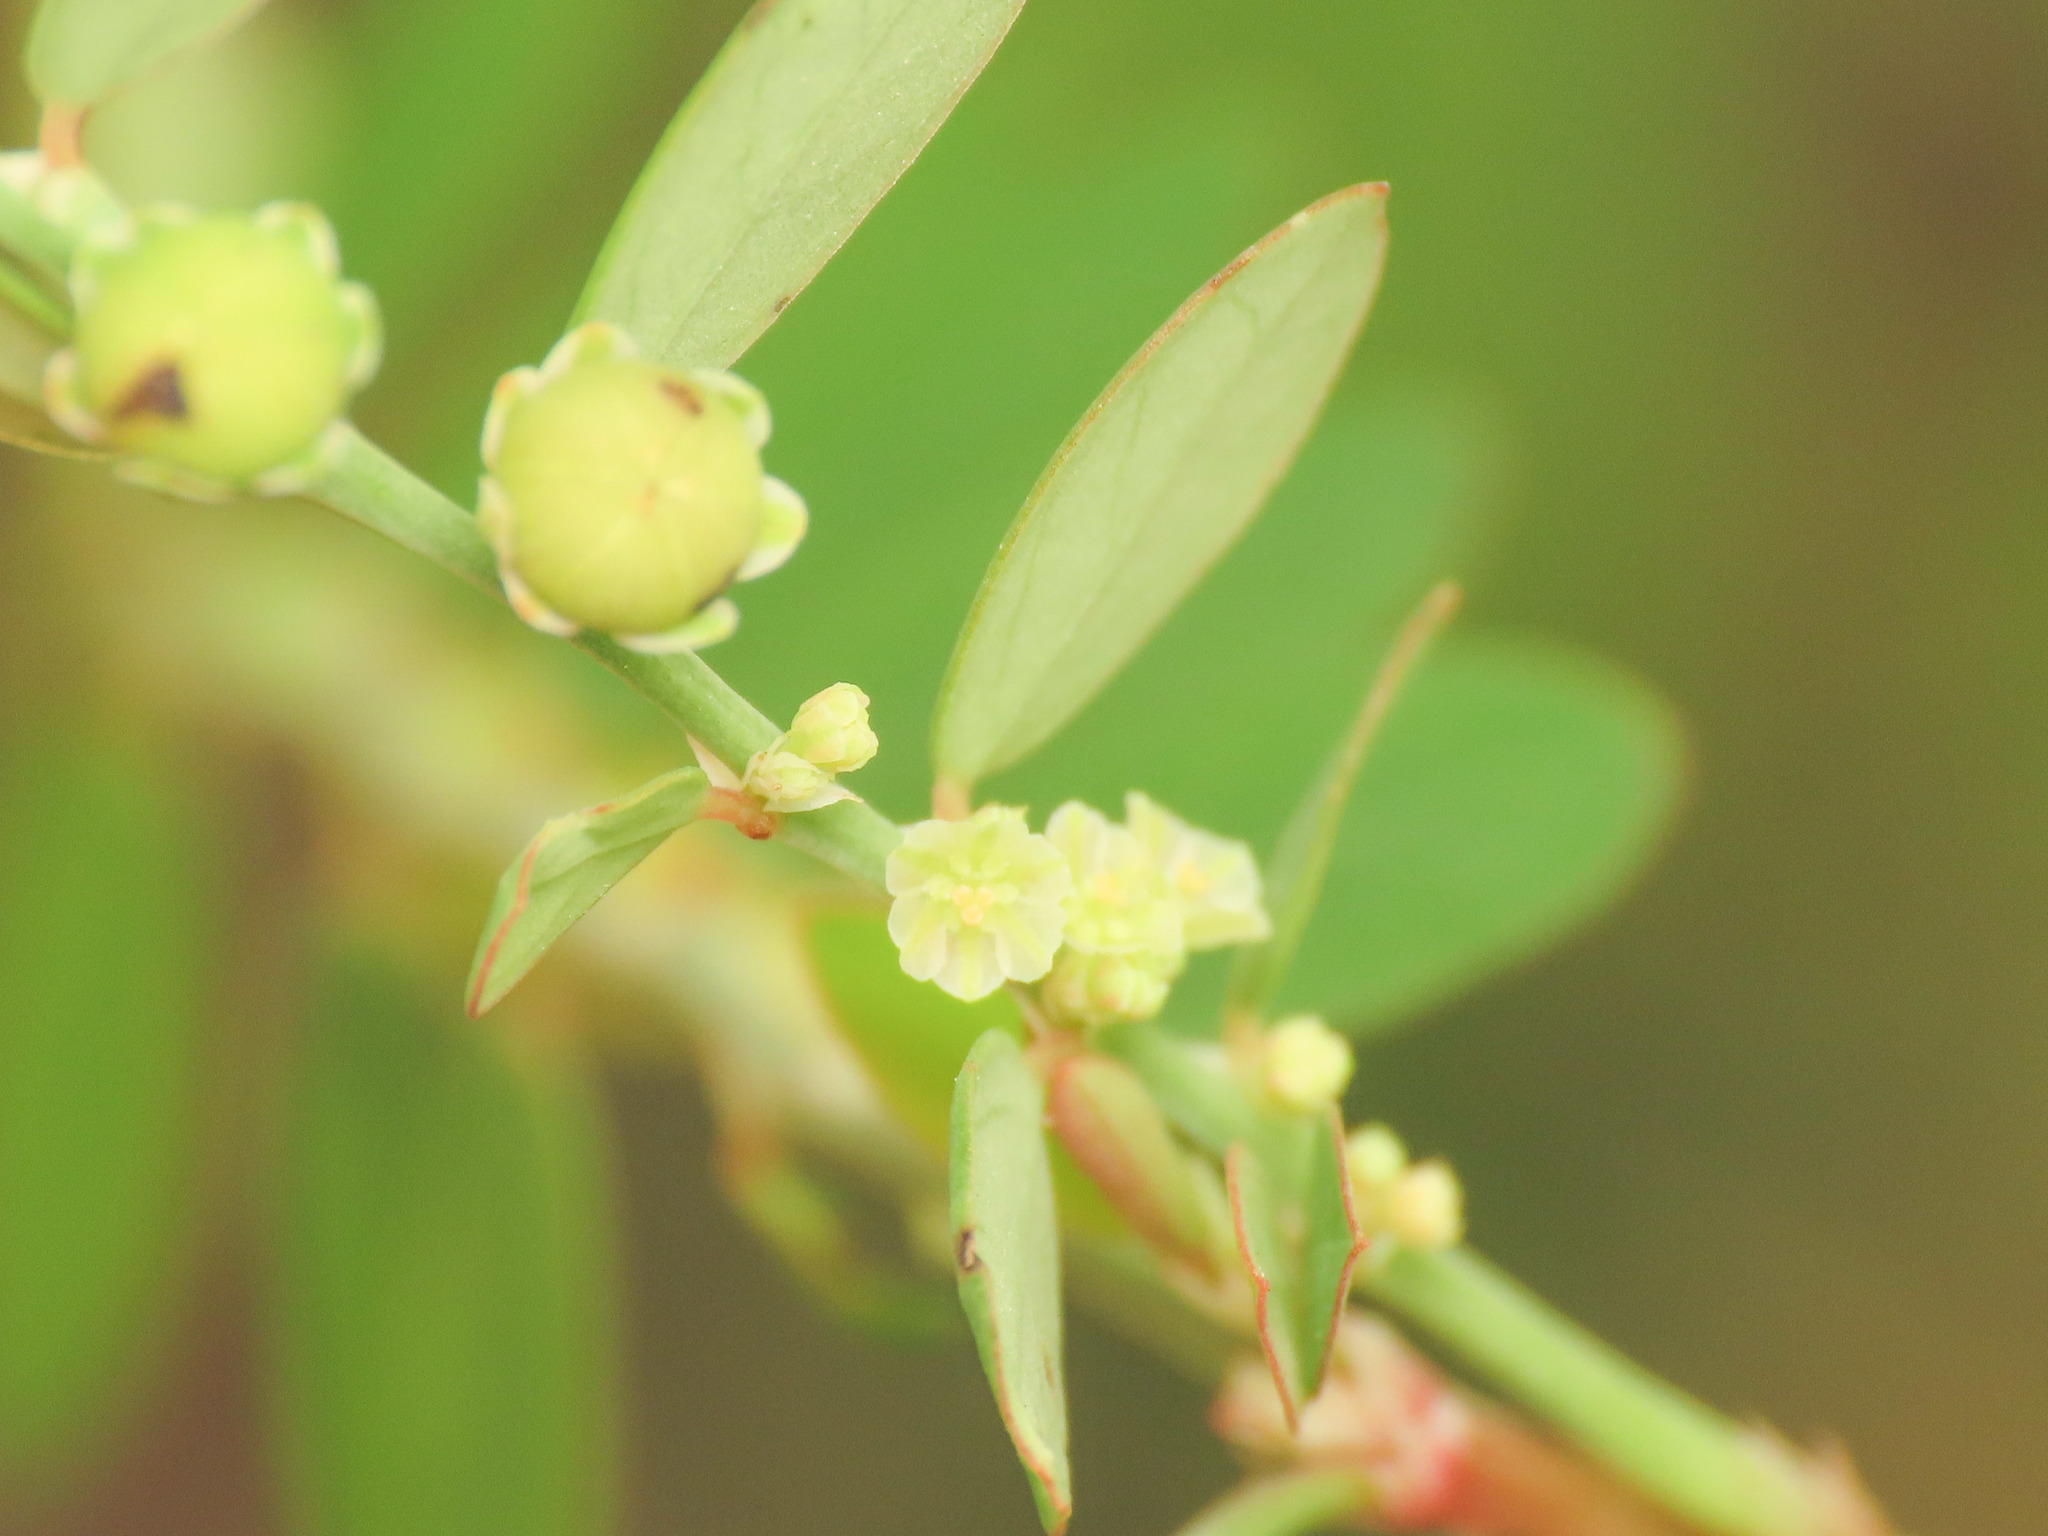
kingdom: Plantae
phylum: Tracheophyta
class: Magnoliopsida
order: Malpighiales
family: Phyllanthaceae
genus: Phyllanthus
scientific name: Phyllanthus tenellus
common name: Mascarene island leaf-flower
